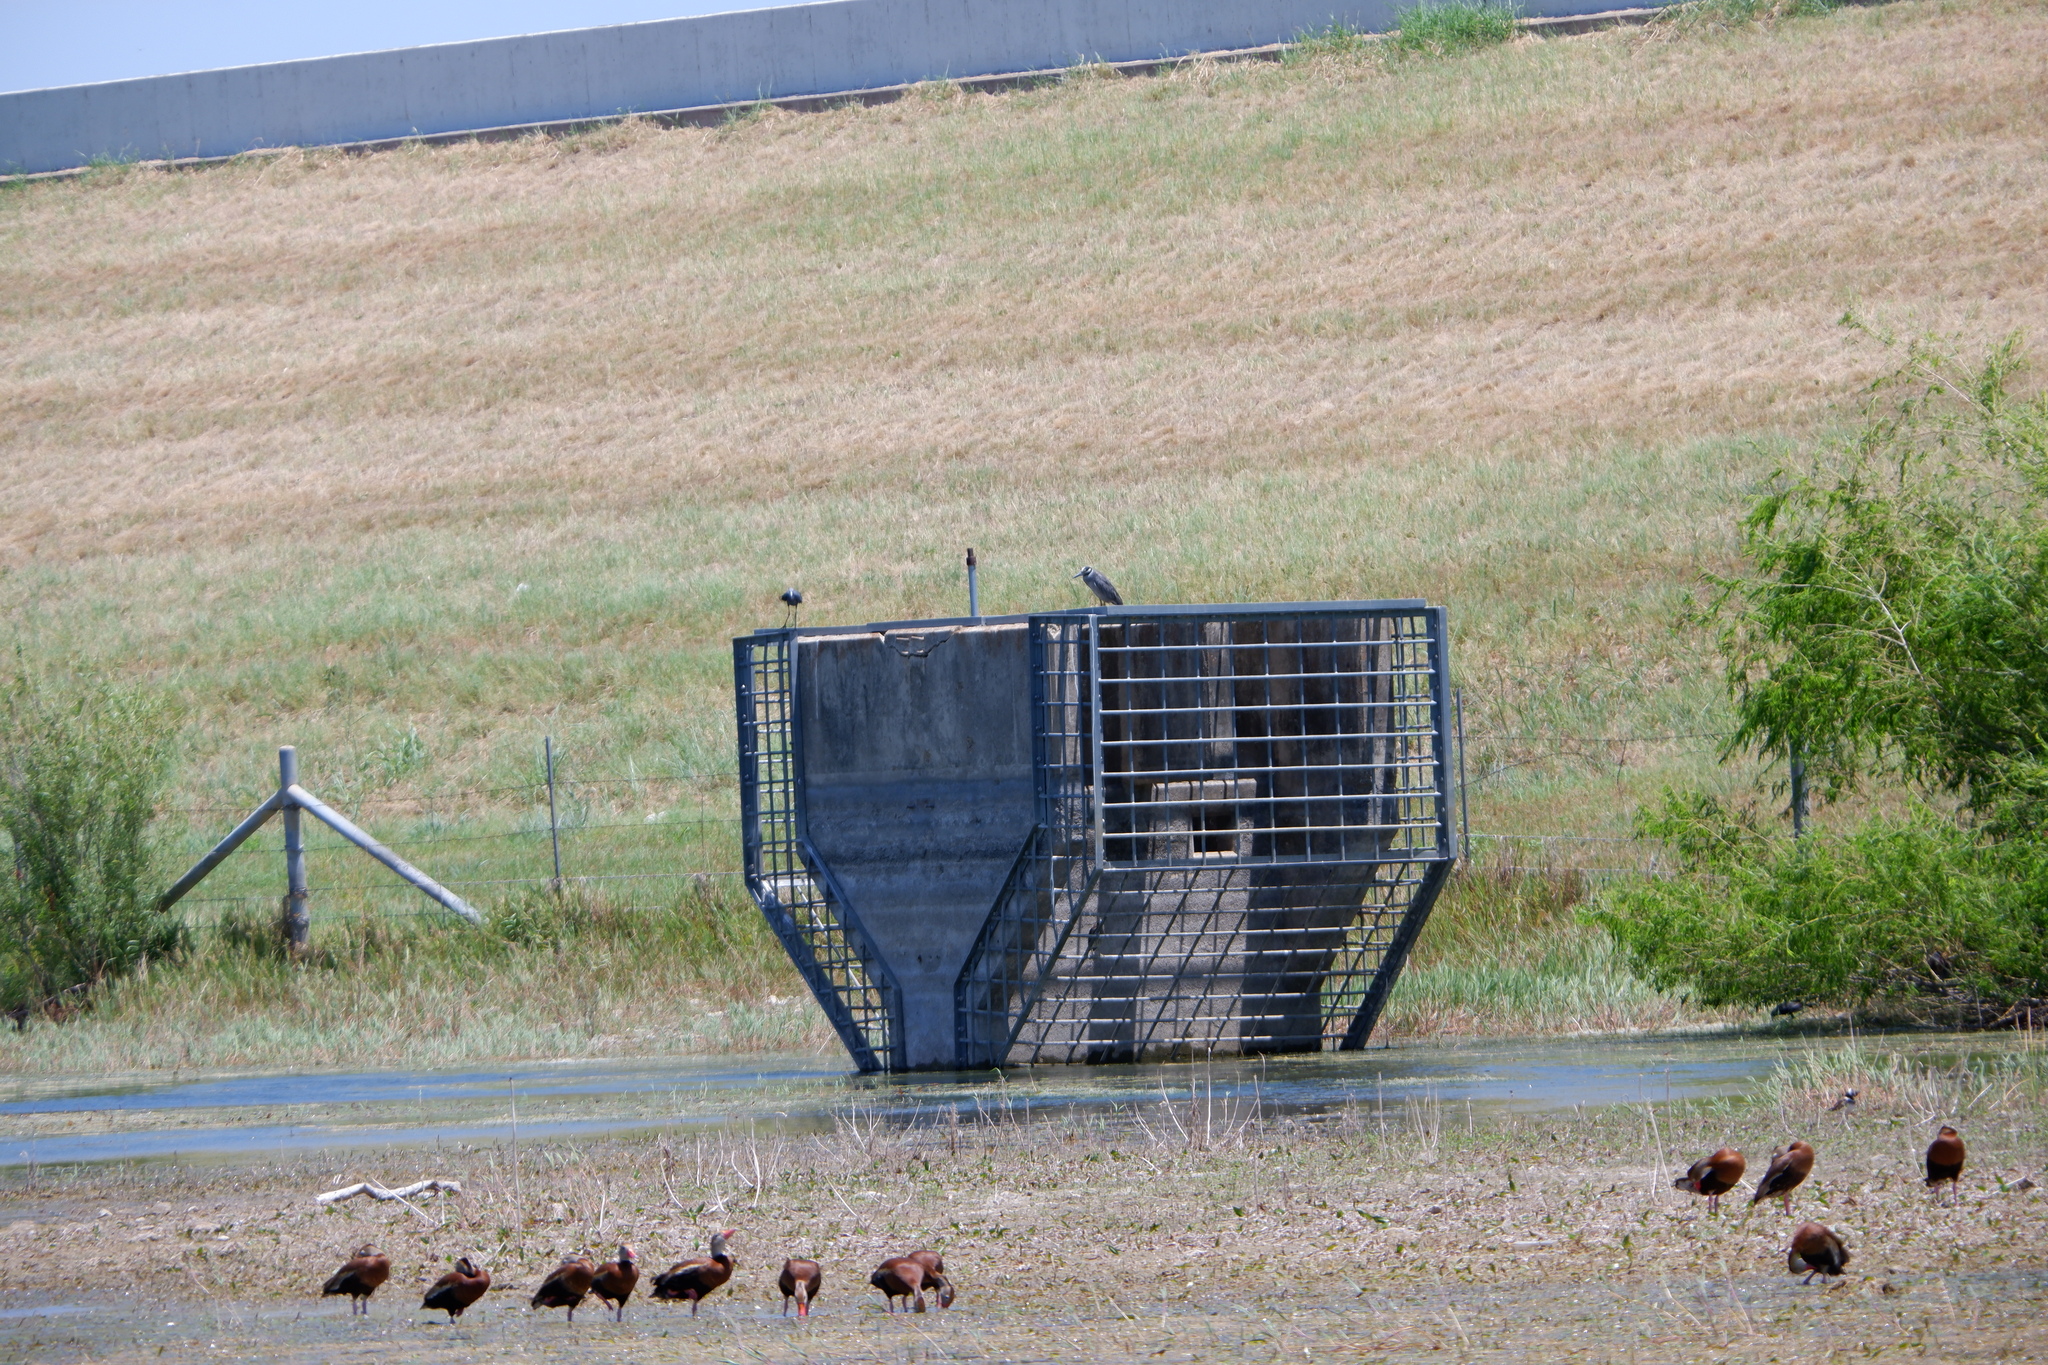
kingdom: Animalia
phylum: Chordata
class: Aves
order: Pelecaniformes
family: Ardeidae
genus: Nyctanassa
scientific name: Nyctanassa violacea
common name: Yellow-crowned night heron
